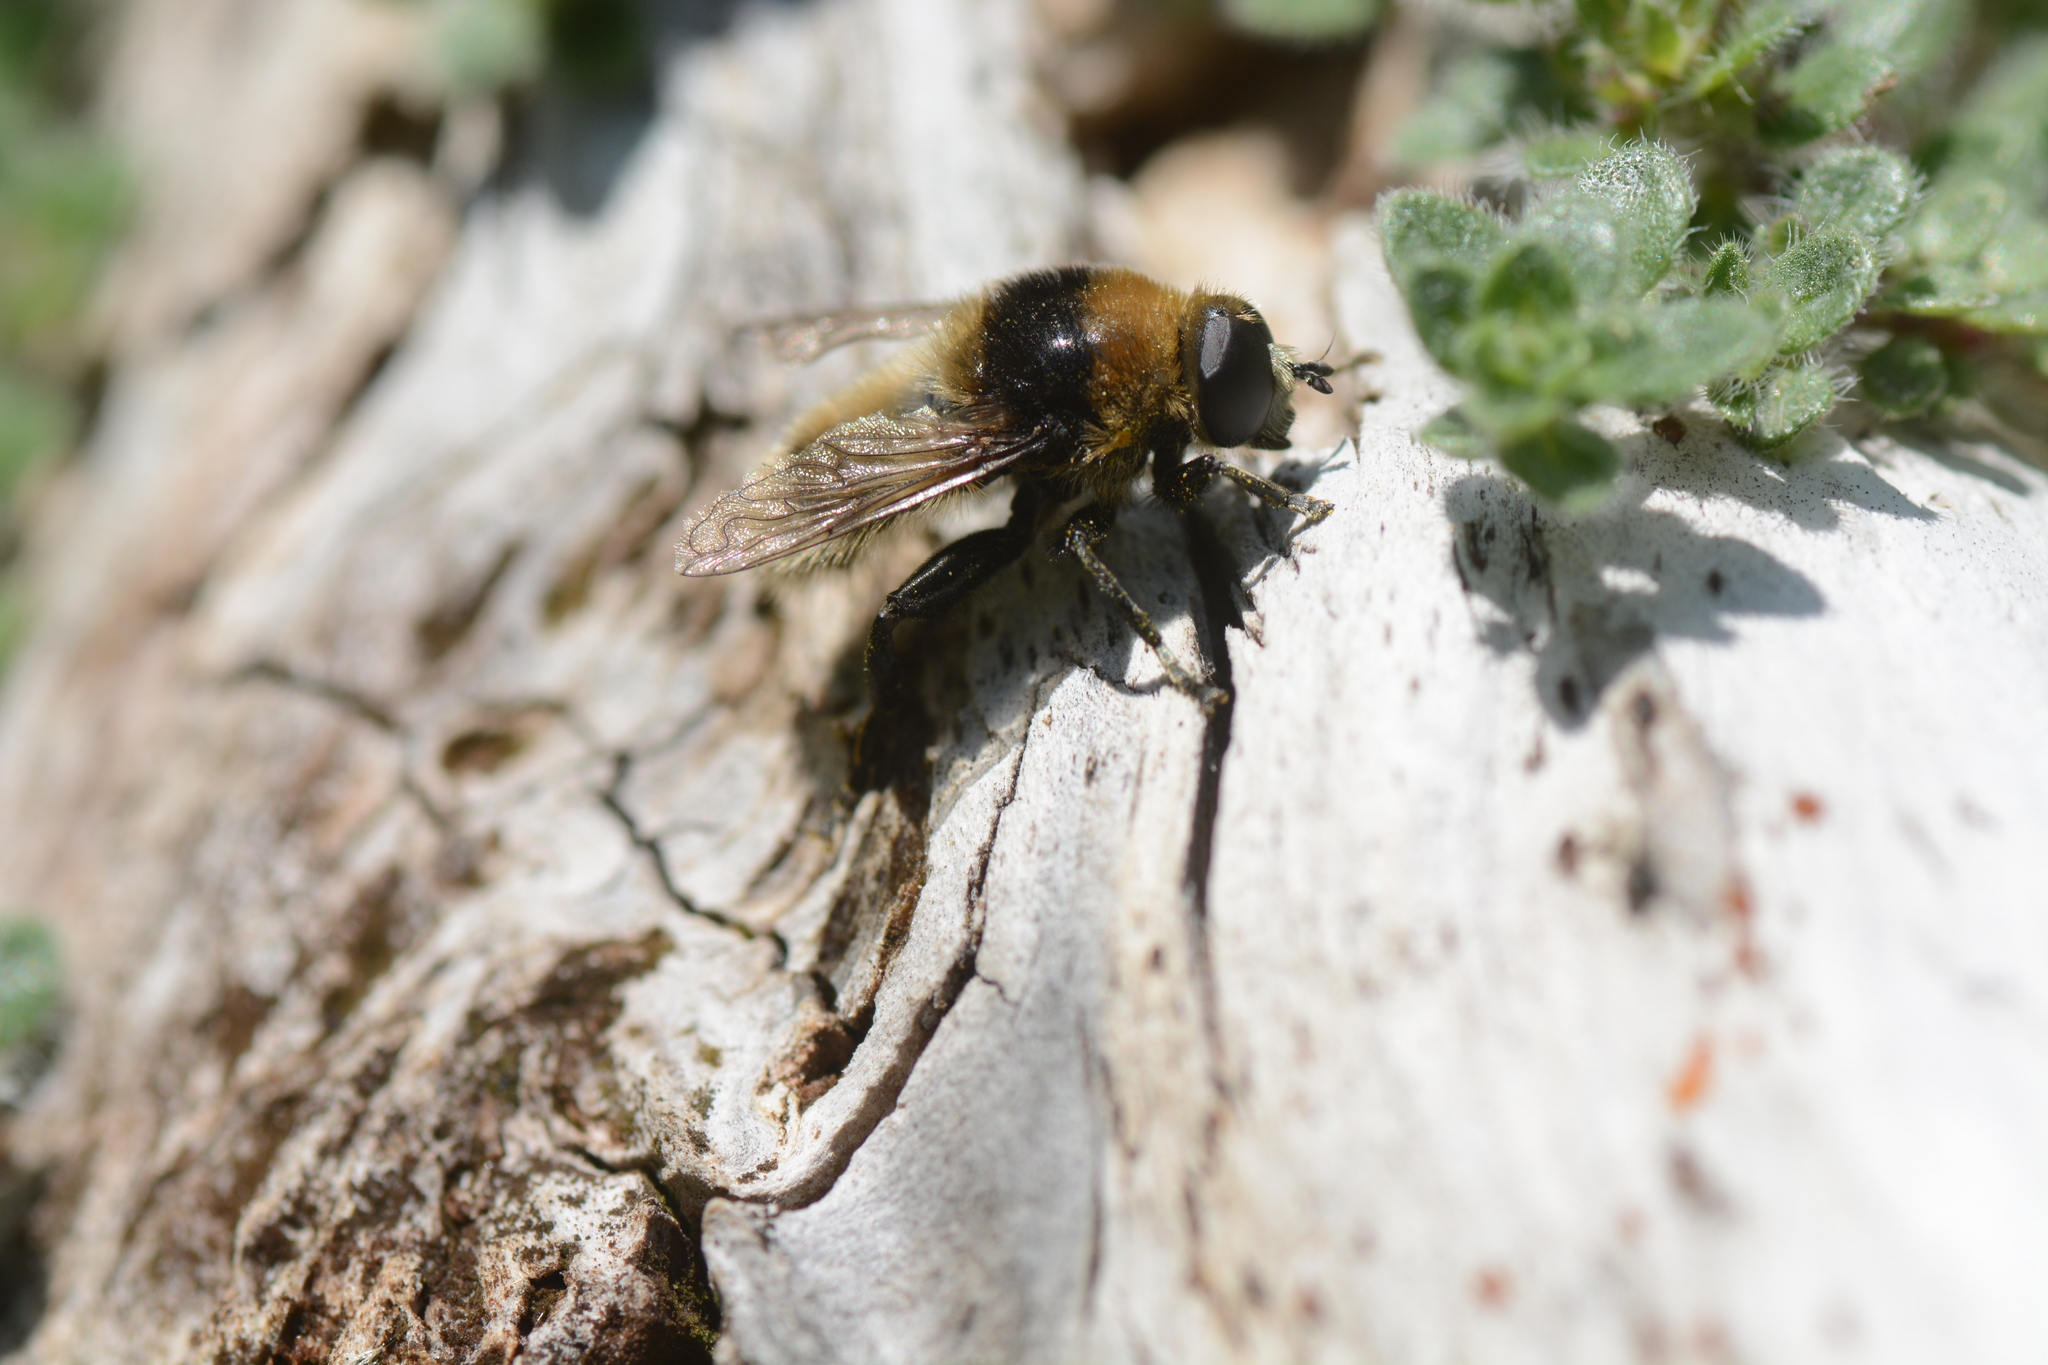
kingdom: Animalia
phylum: Arthropoda
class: Insecta
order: Diptera
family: Syrphidae
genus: Merodon
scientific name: Merodon equestris
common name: Greater bulb-fly
